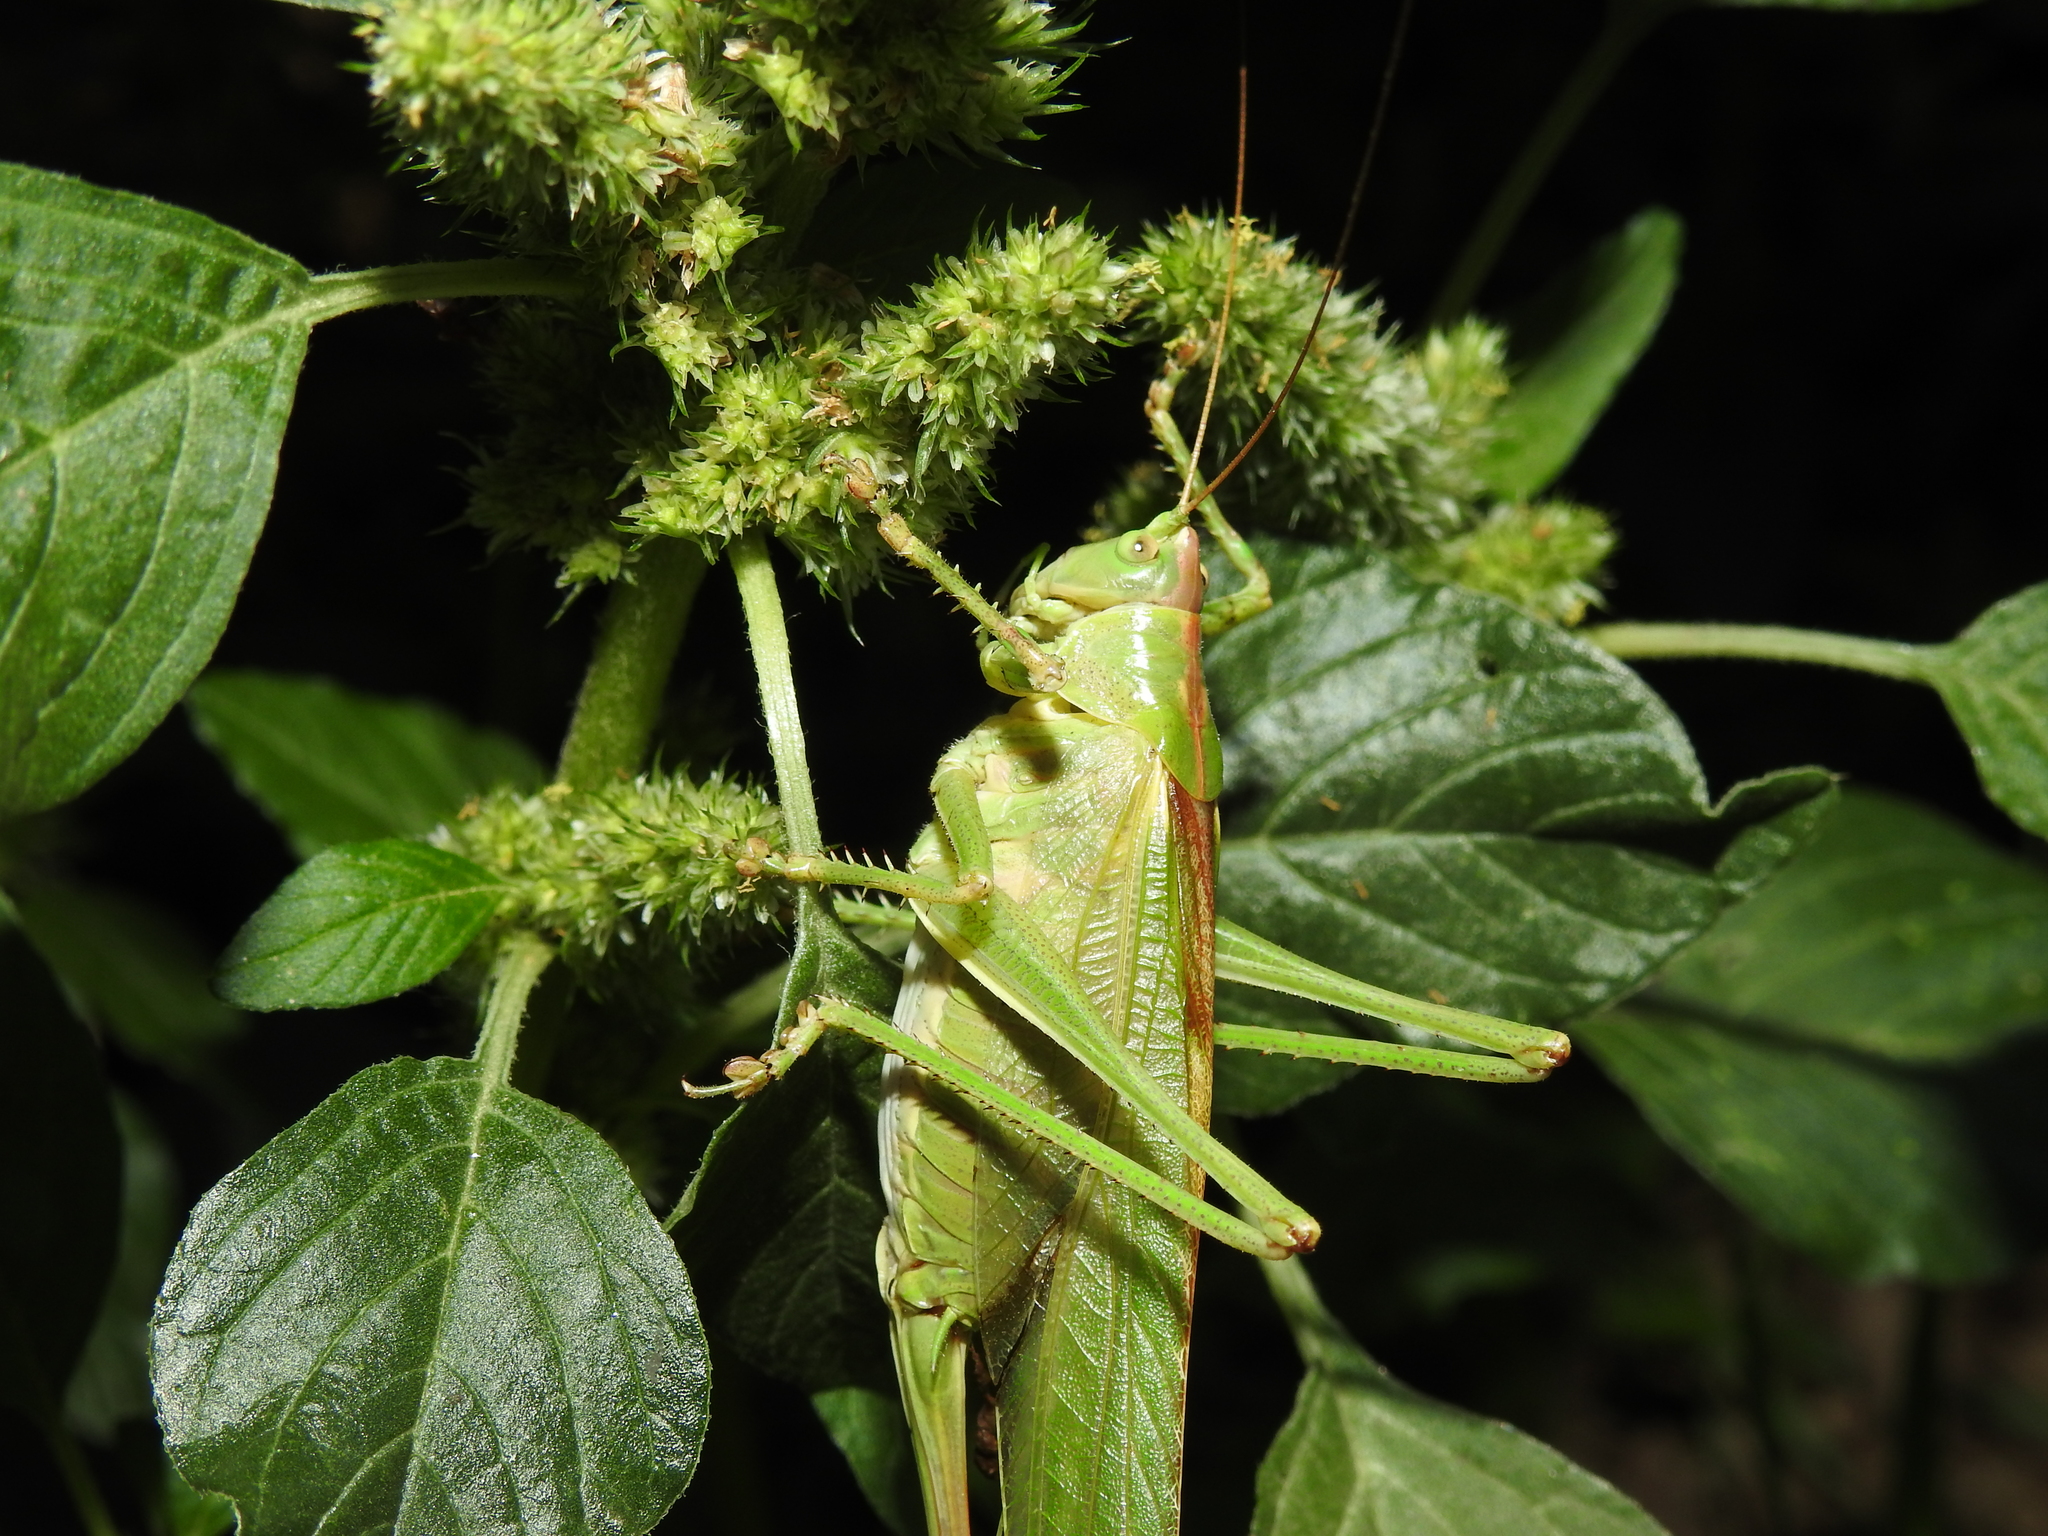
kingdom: Animalia
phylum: Arthropoda
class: Insecta
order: Orthoptera
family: Tettigoniidae
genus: Tettigonia
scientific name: Tettigonia viridissima
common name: Great green bush-cricket
